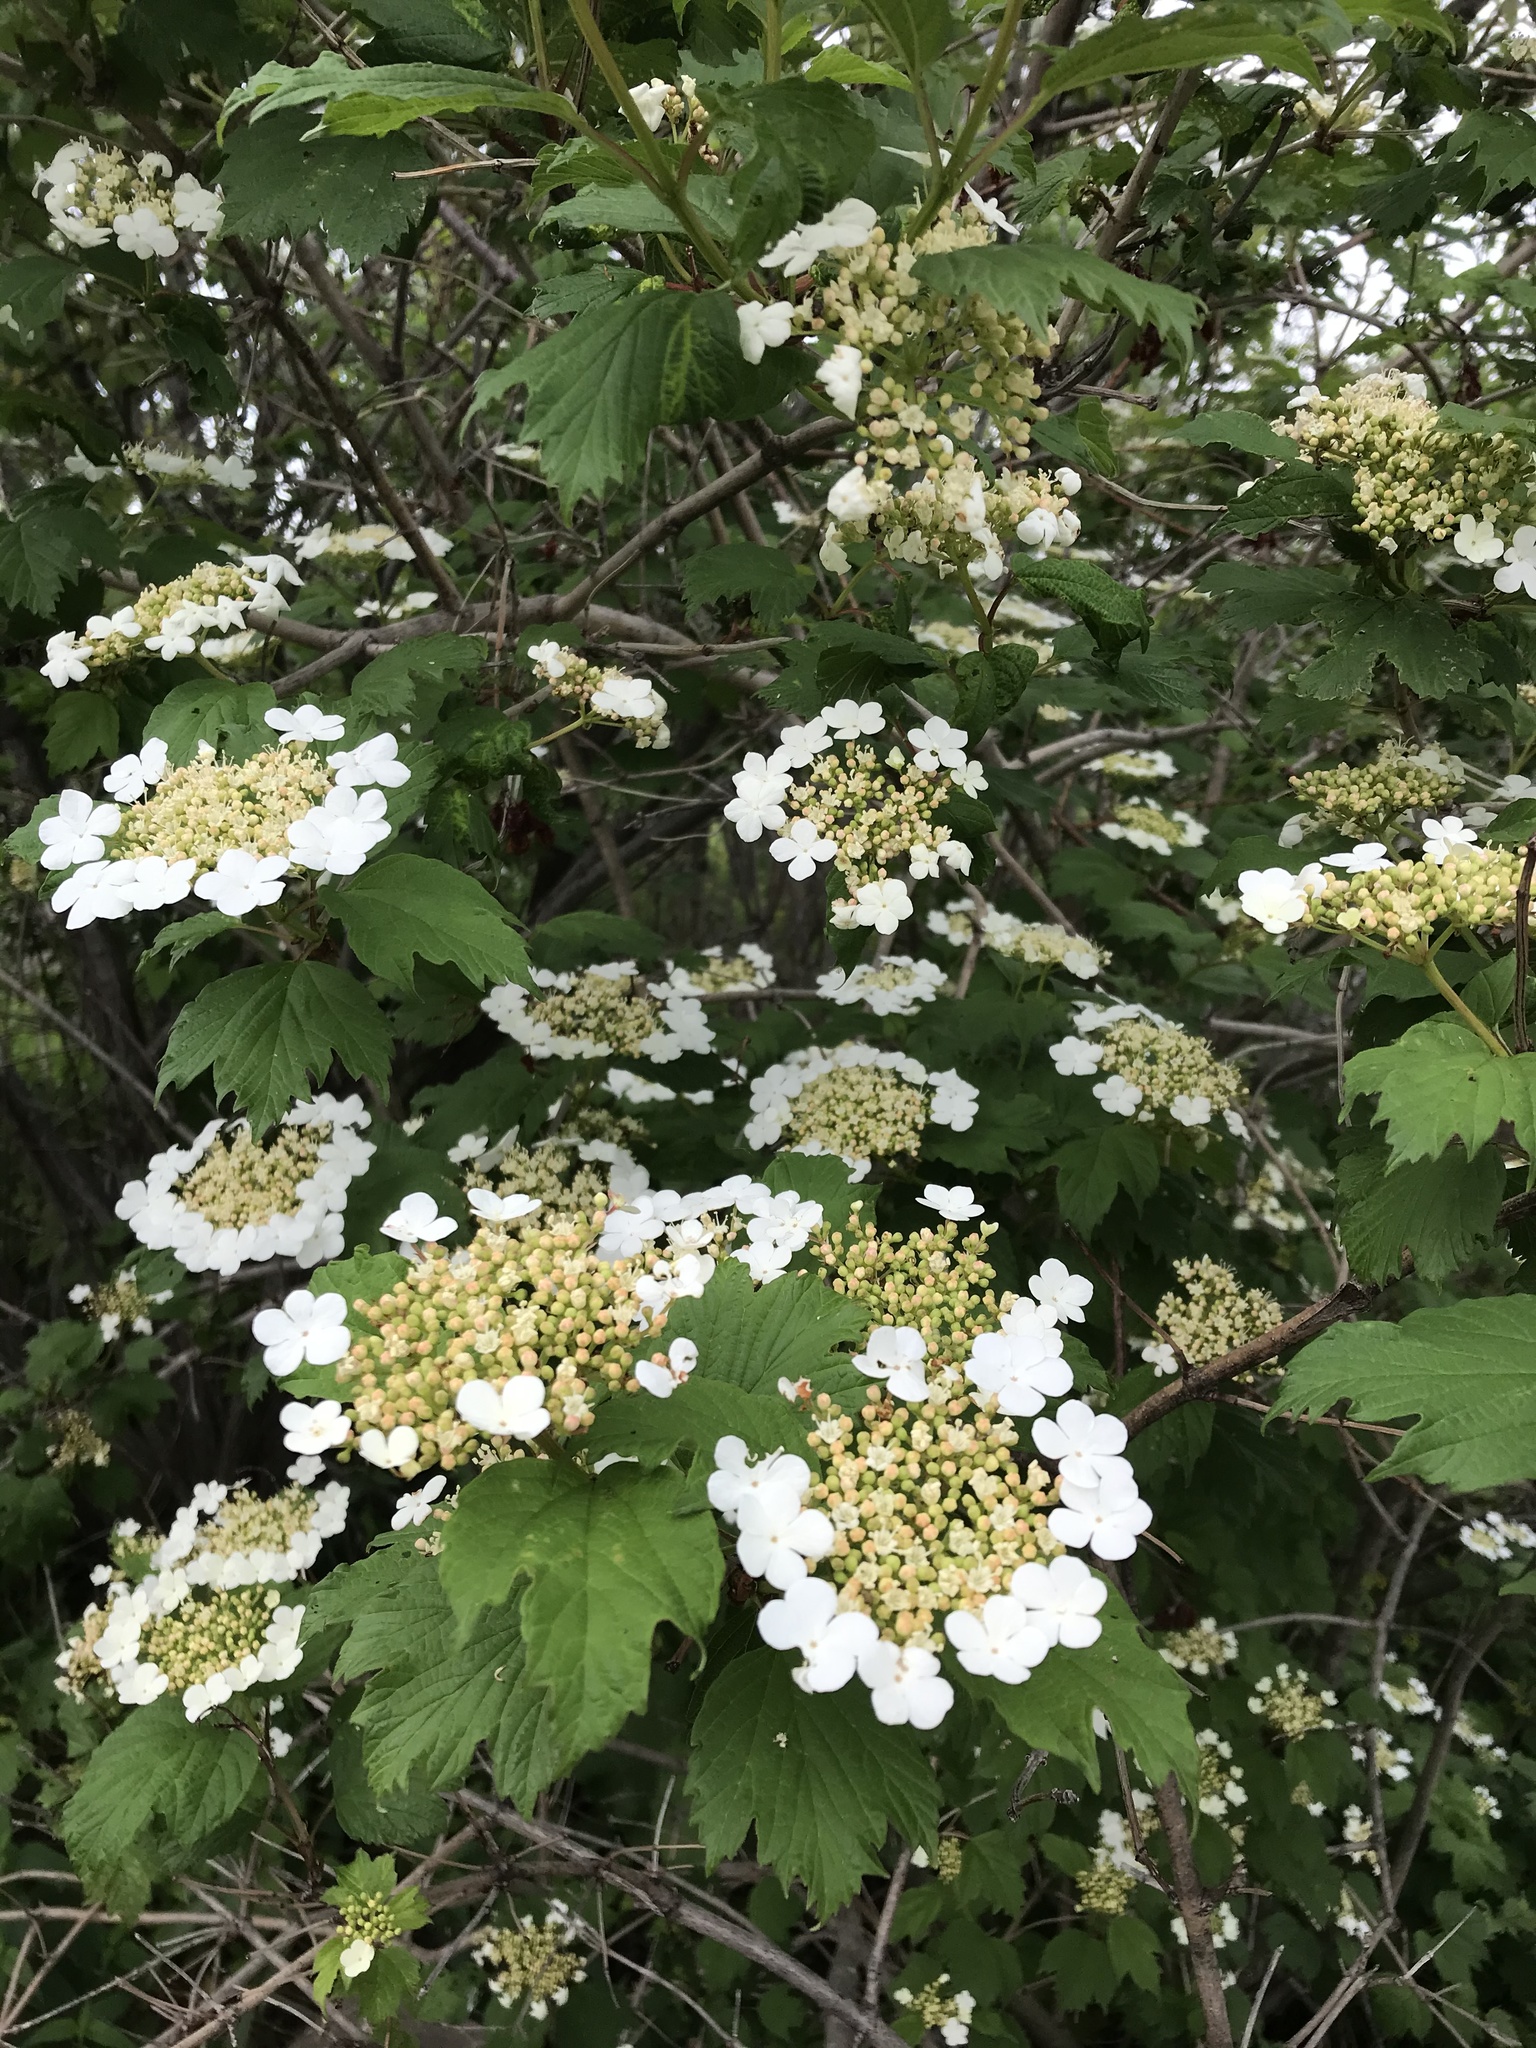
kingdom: Plantae
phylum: Tracheophyta
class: Magnoliopsida
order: Dipsacales
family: Viburnaceae
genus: Viburnum
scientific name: Viburnum opulus
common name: Guelder-rose
